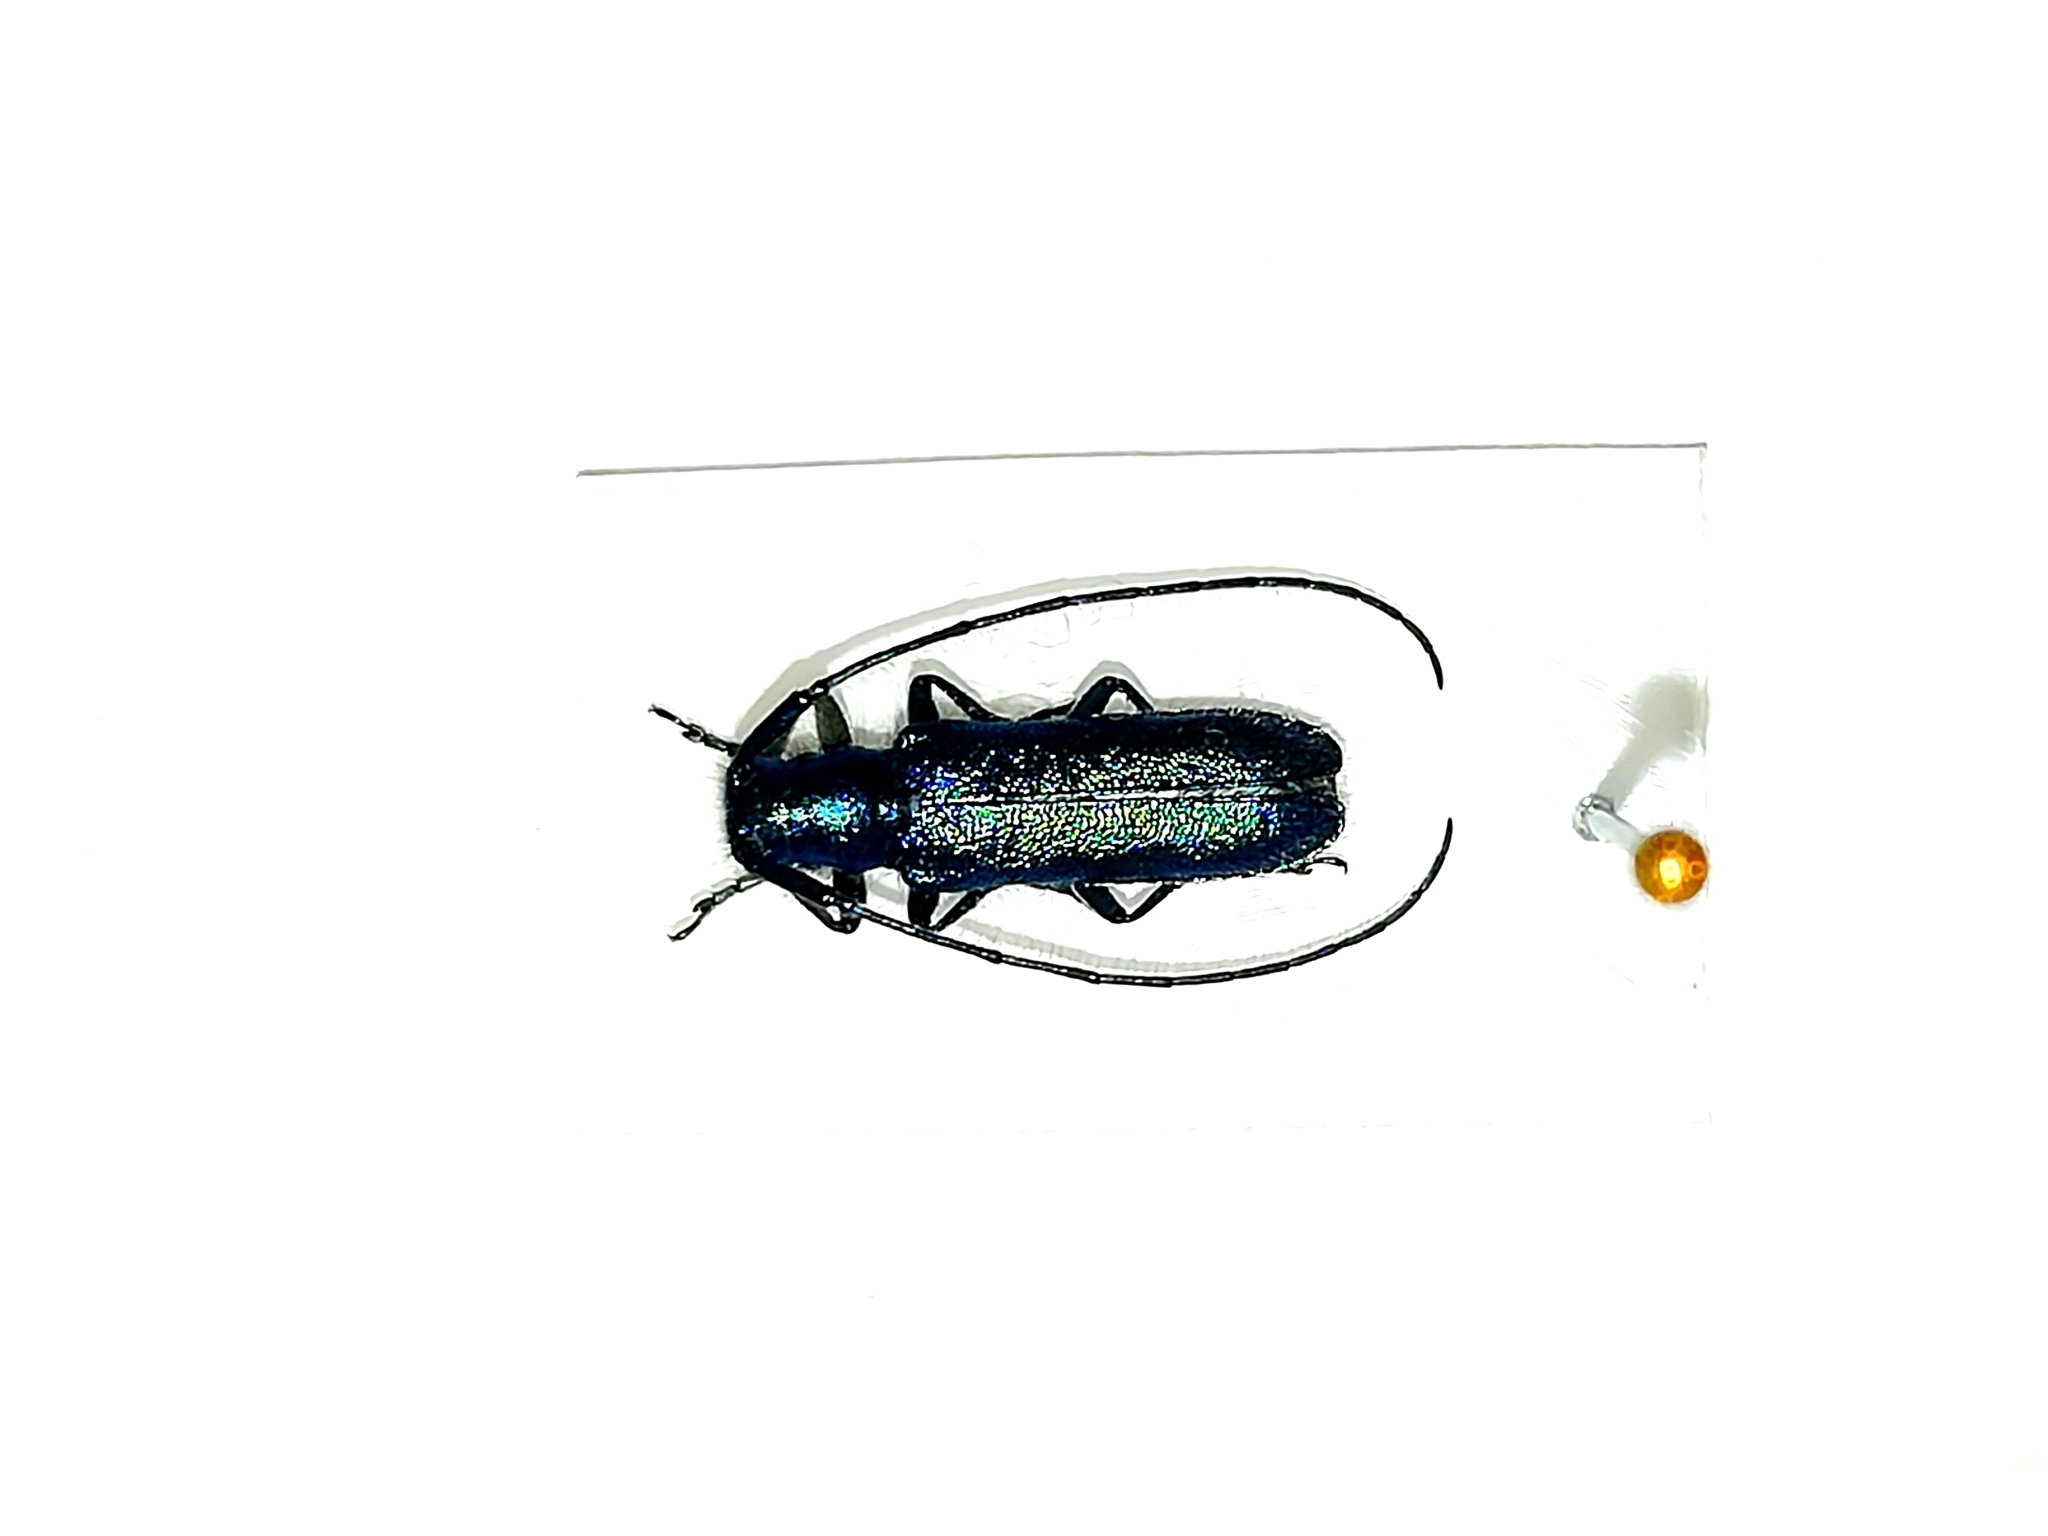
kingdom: Animalia
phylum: Arthropoda
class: Insecta
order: Coleoptera
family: Cerambycidae
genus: Agapanthia
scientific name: Agapanthia intermedia
